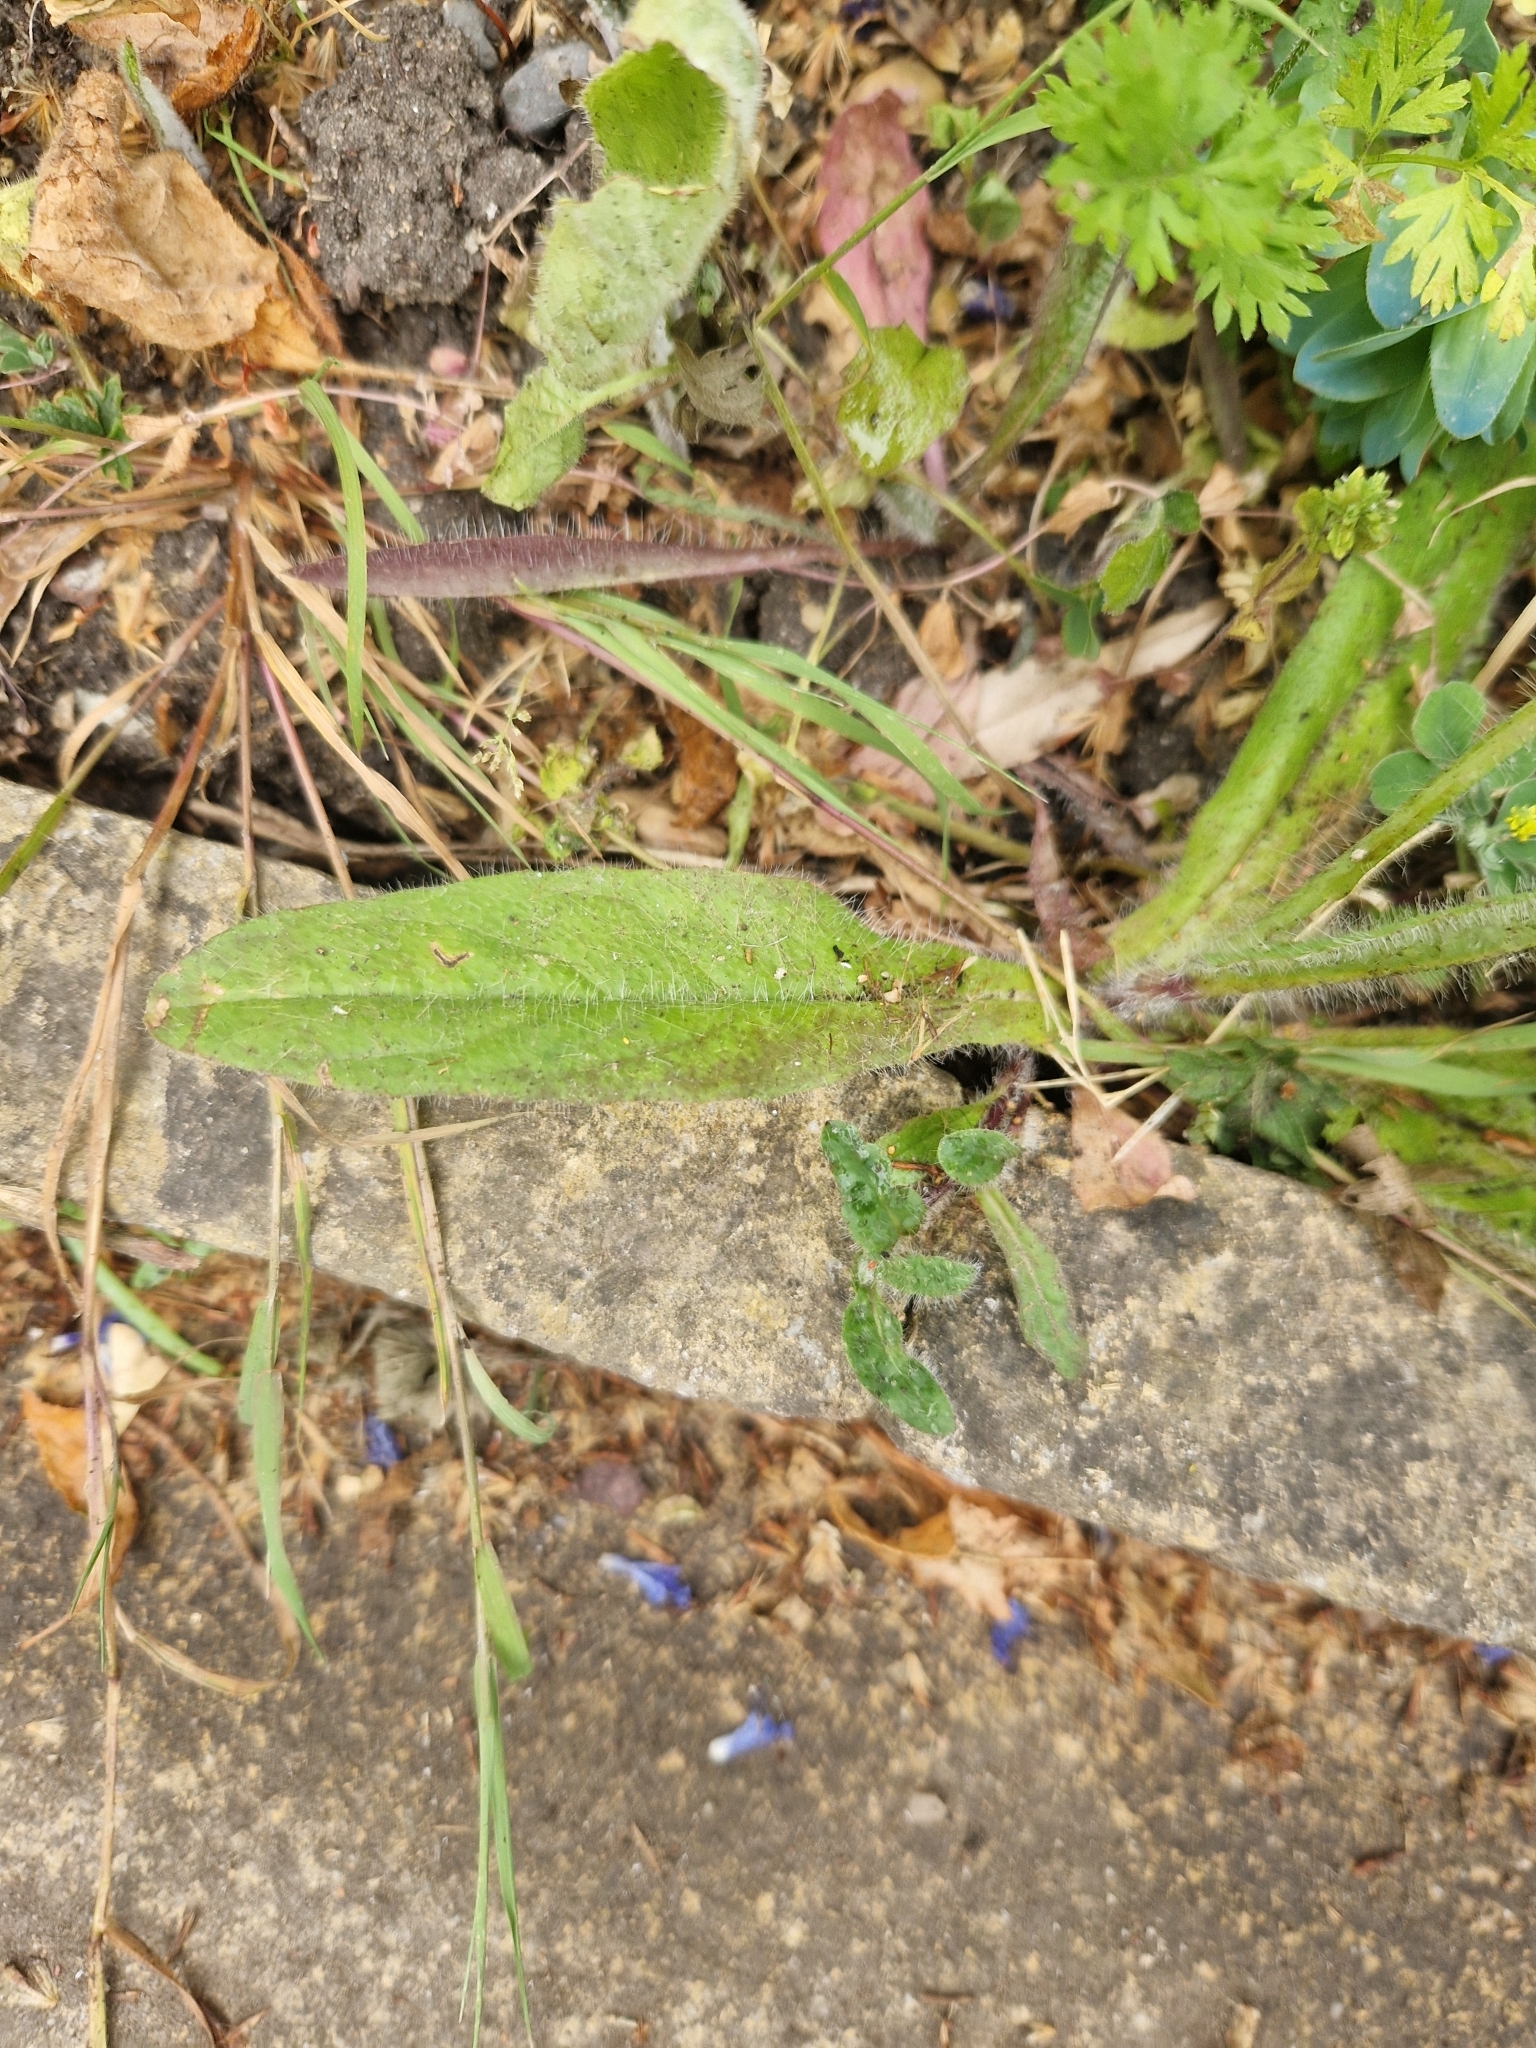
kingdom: Plantae
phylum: Tracheophyta
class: Magnoliopsida
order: Asterales
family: Asteraceae
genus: Pilosella
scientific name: Pilosella aurantiaca
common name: Fox-and-cubs
